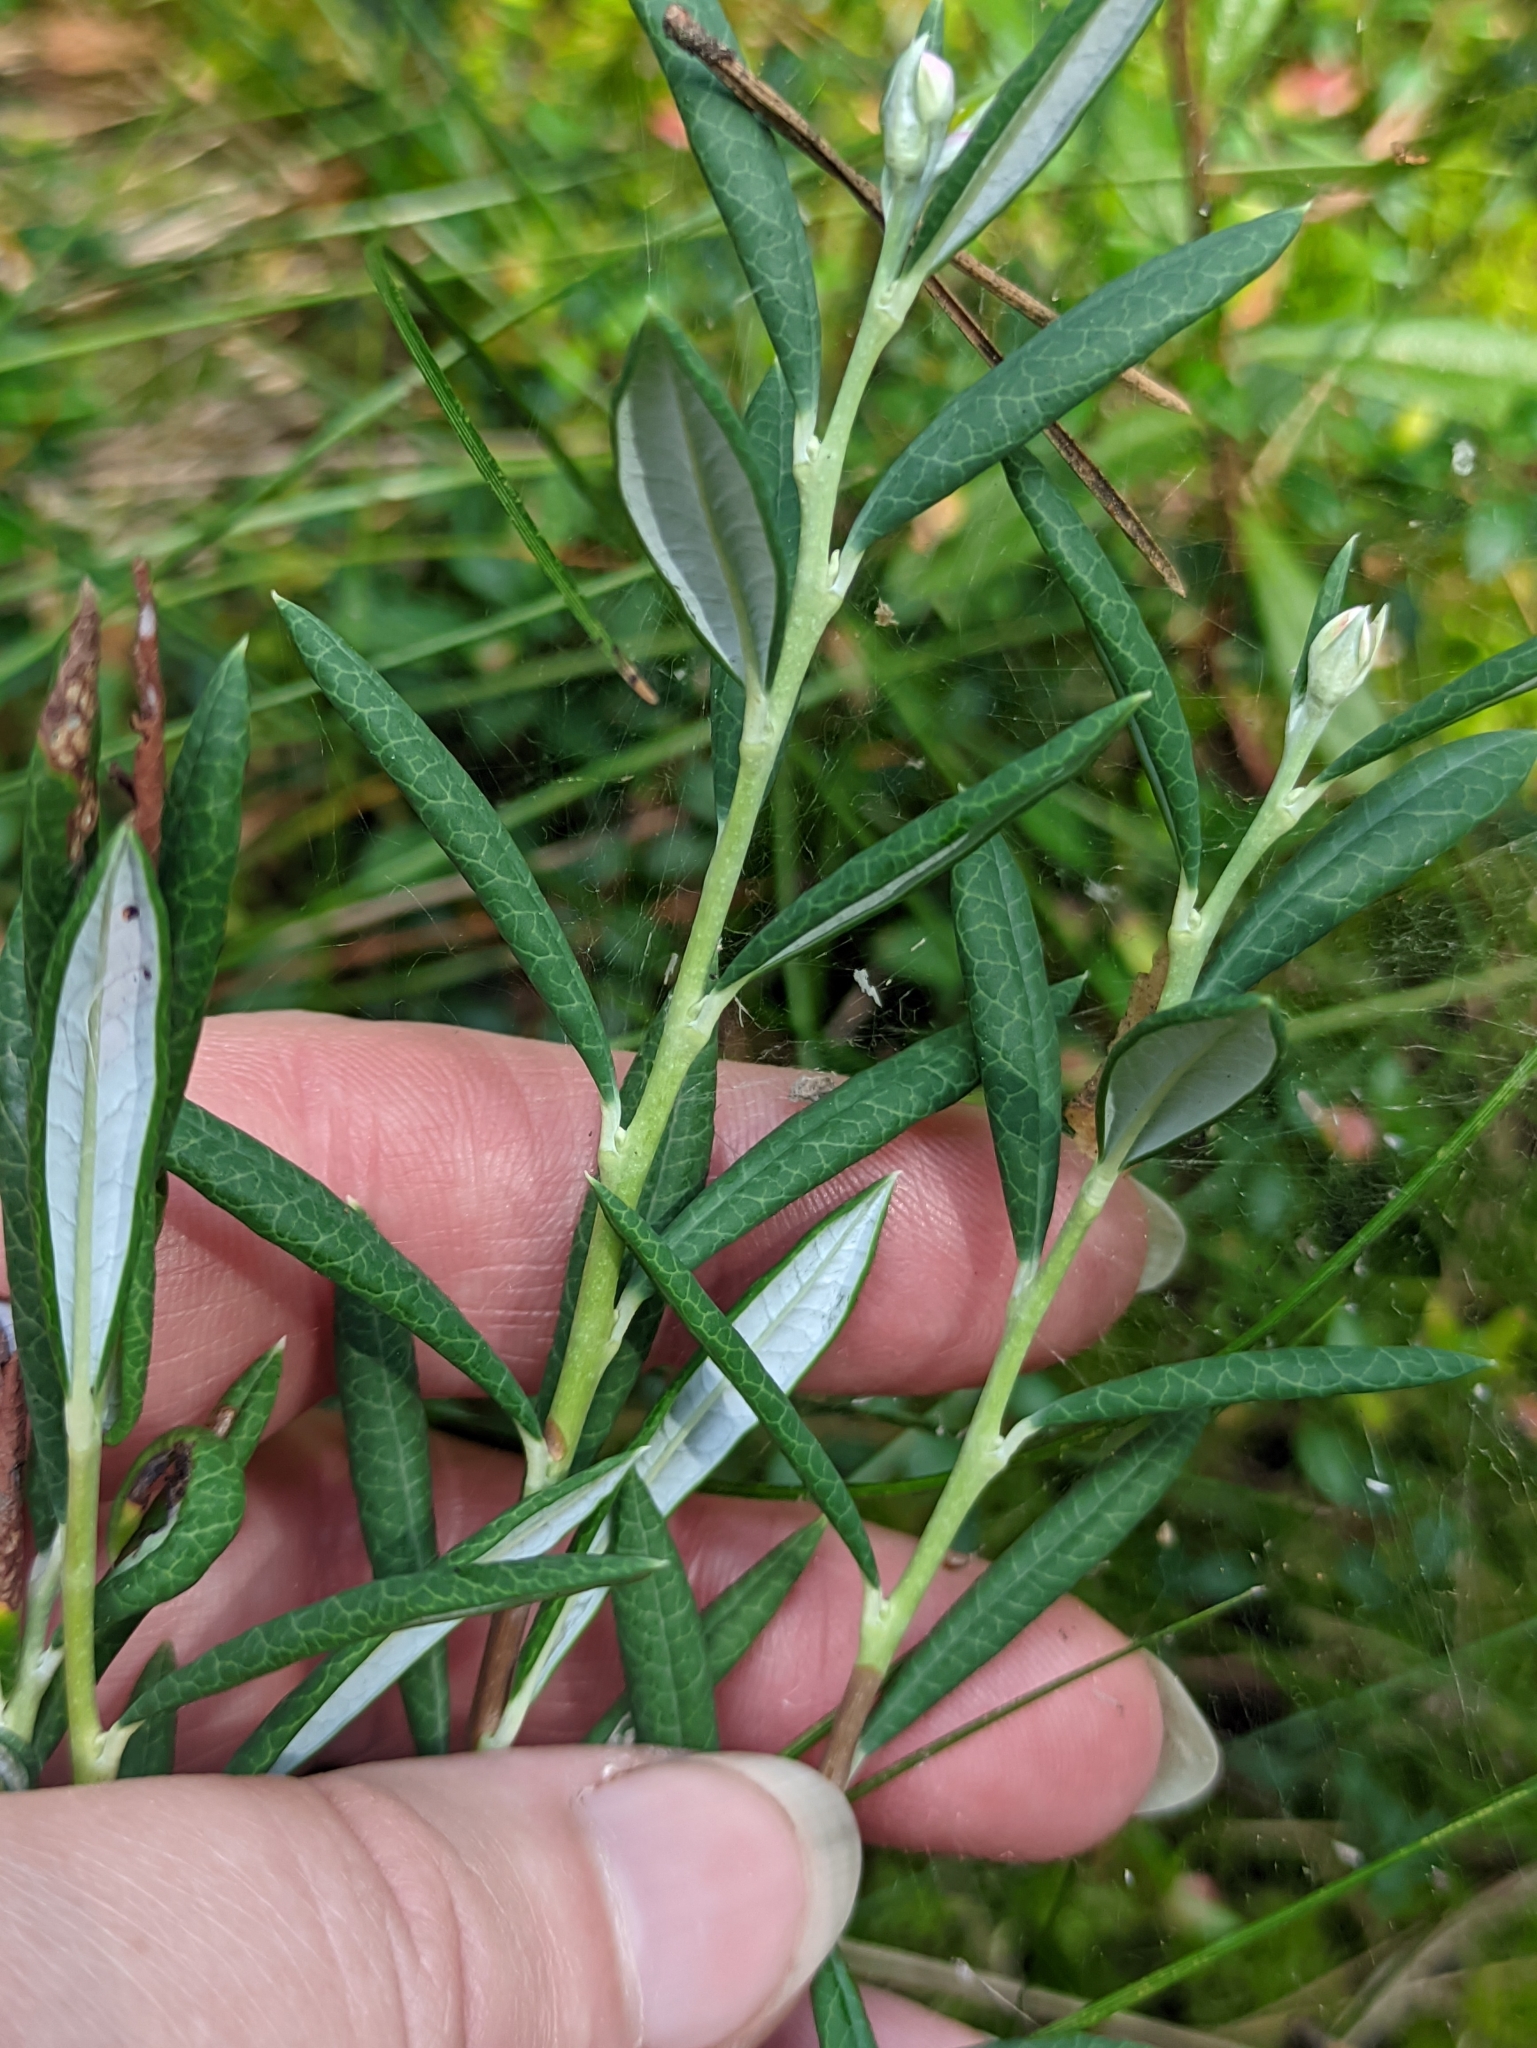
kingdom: Plantae
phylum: Tracheophyta
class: Magnoliopsida
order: Ericales
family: Ericaceae
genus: Andromeda
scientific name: Andromeda polifolia
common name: Bog-rosemary
